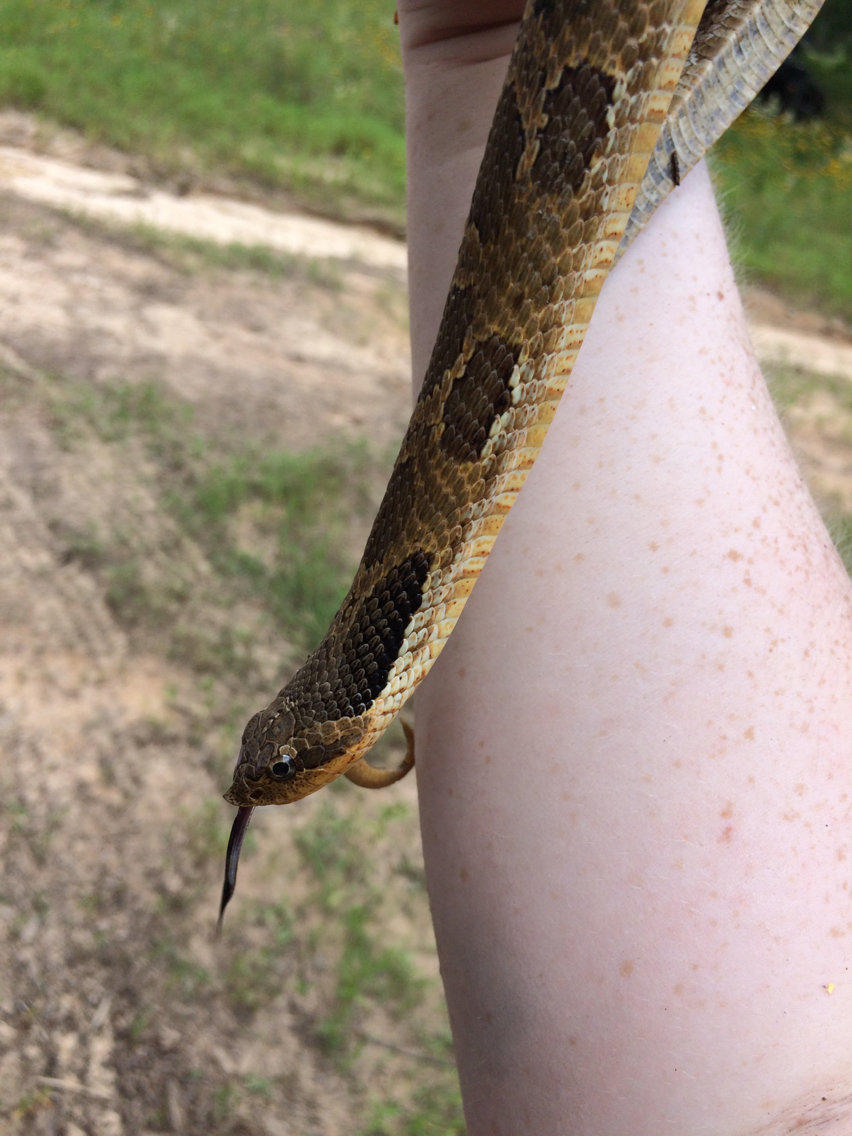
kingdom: Animalia
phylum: Chordata
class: Squamata
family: Colubridae
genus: Heterodon
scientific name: Heterodon platirhinos
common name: Eastern hognose snake
